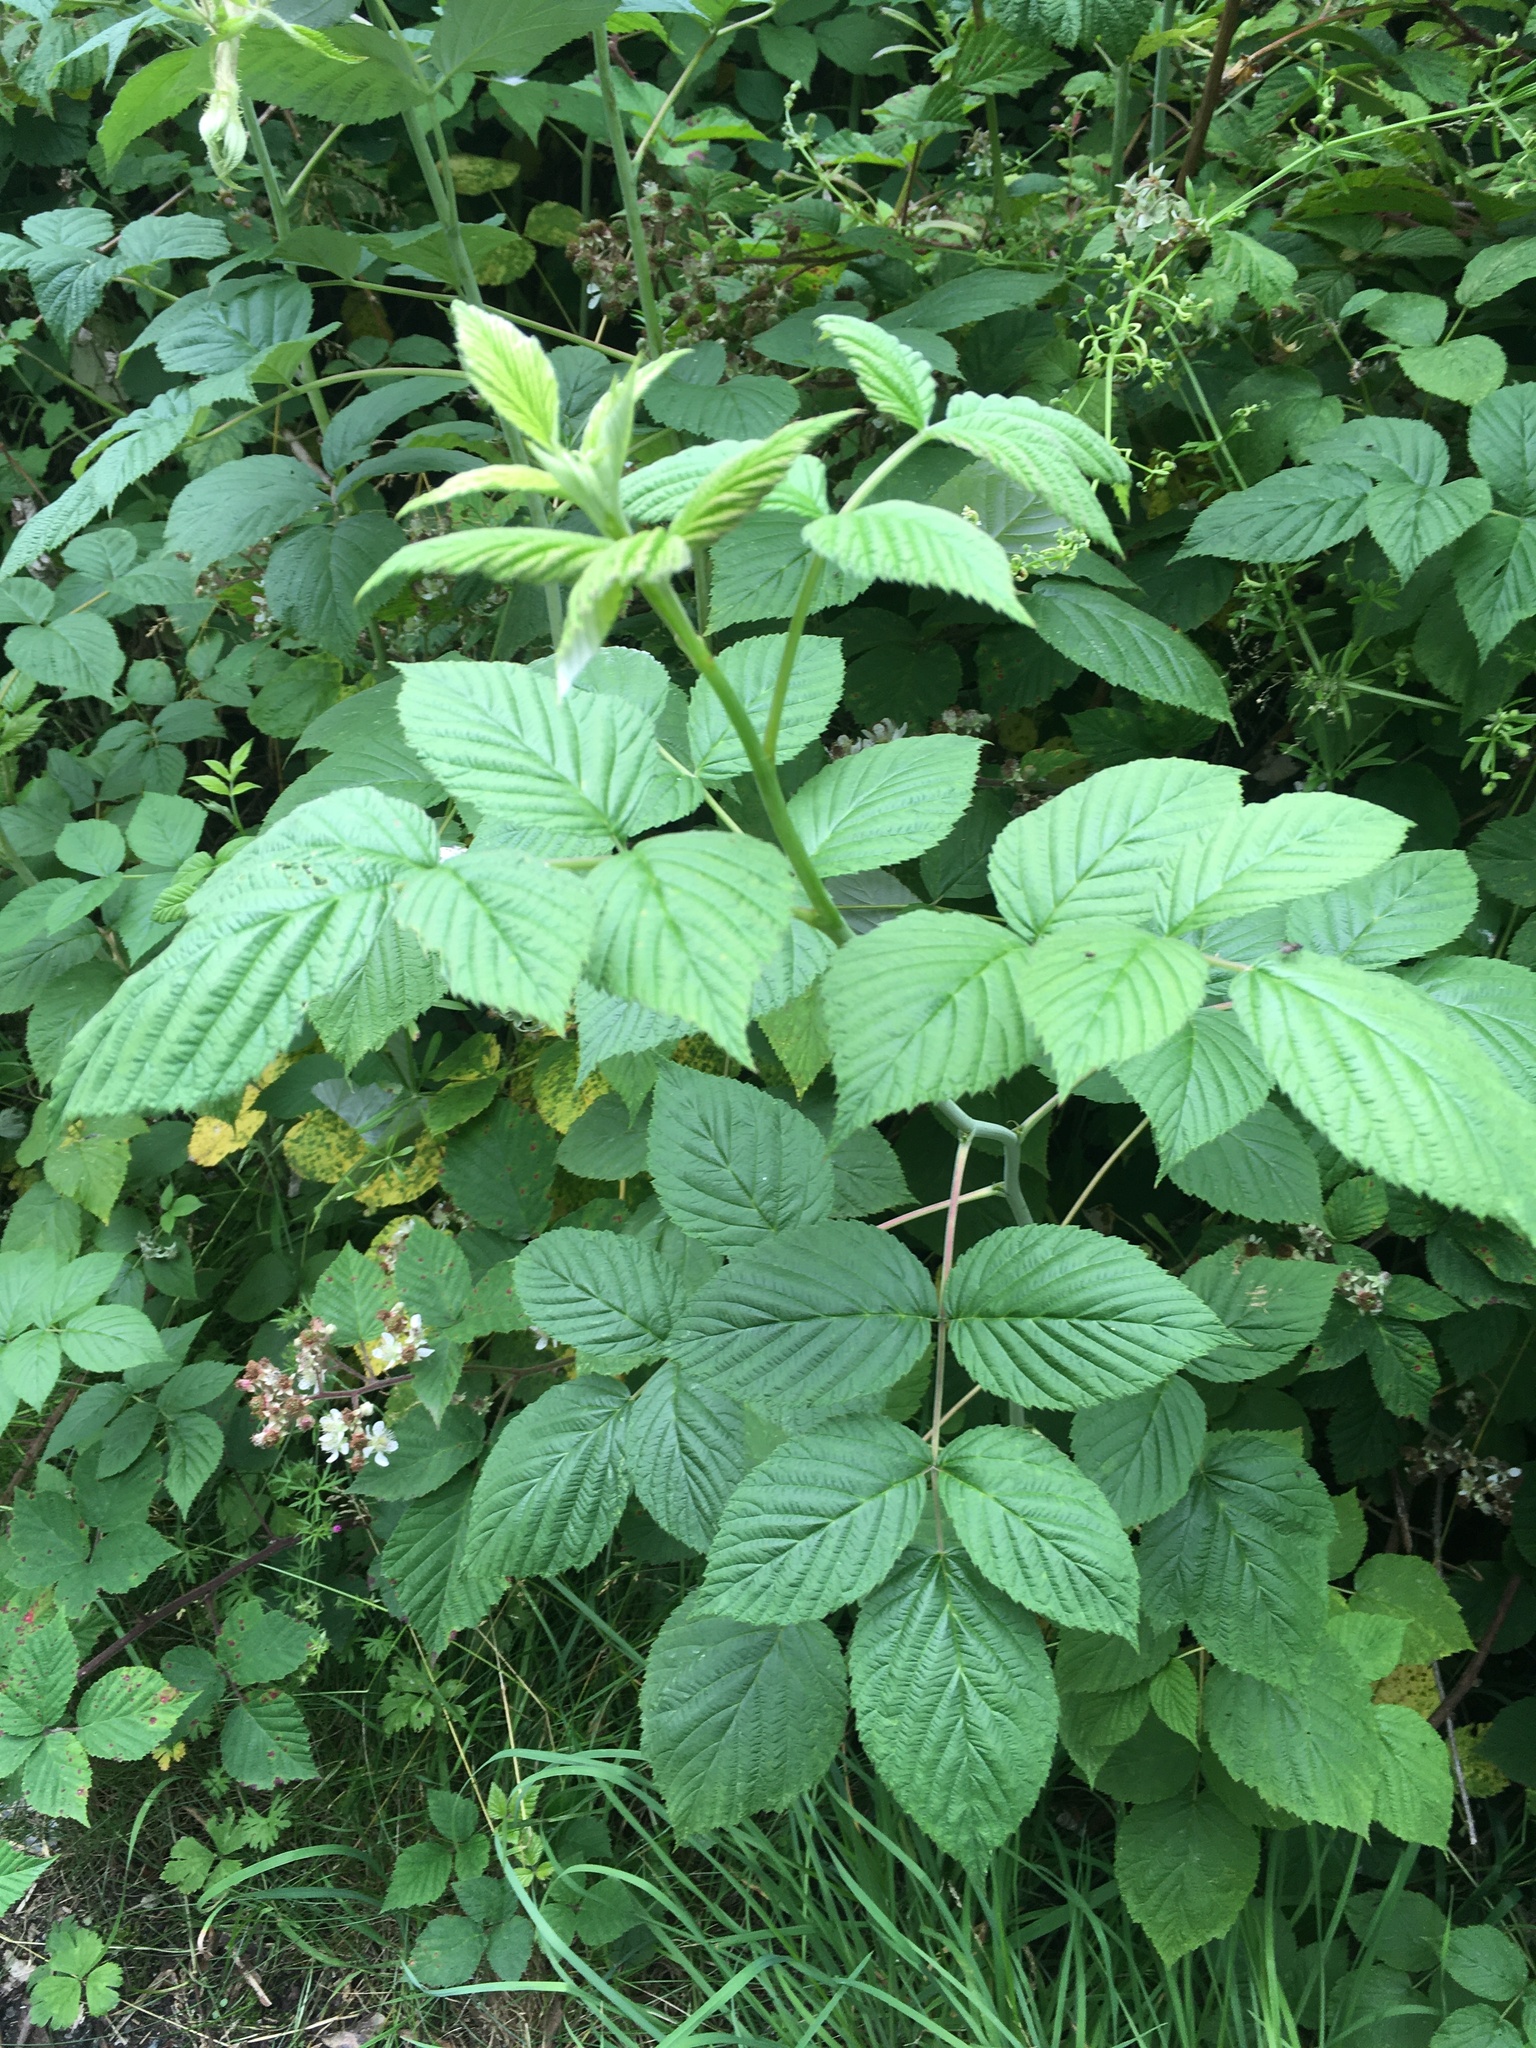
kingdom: Plantae
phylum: Tracheophyta
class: Magnoliopsida
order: Rosales
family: Rosaceae
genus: Rubus
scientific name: Rubus idaeus
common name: Raspberry
